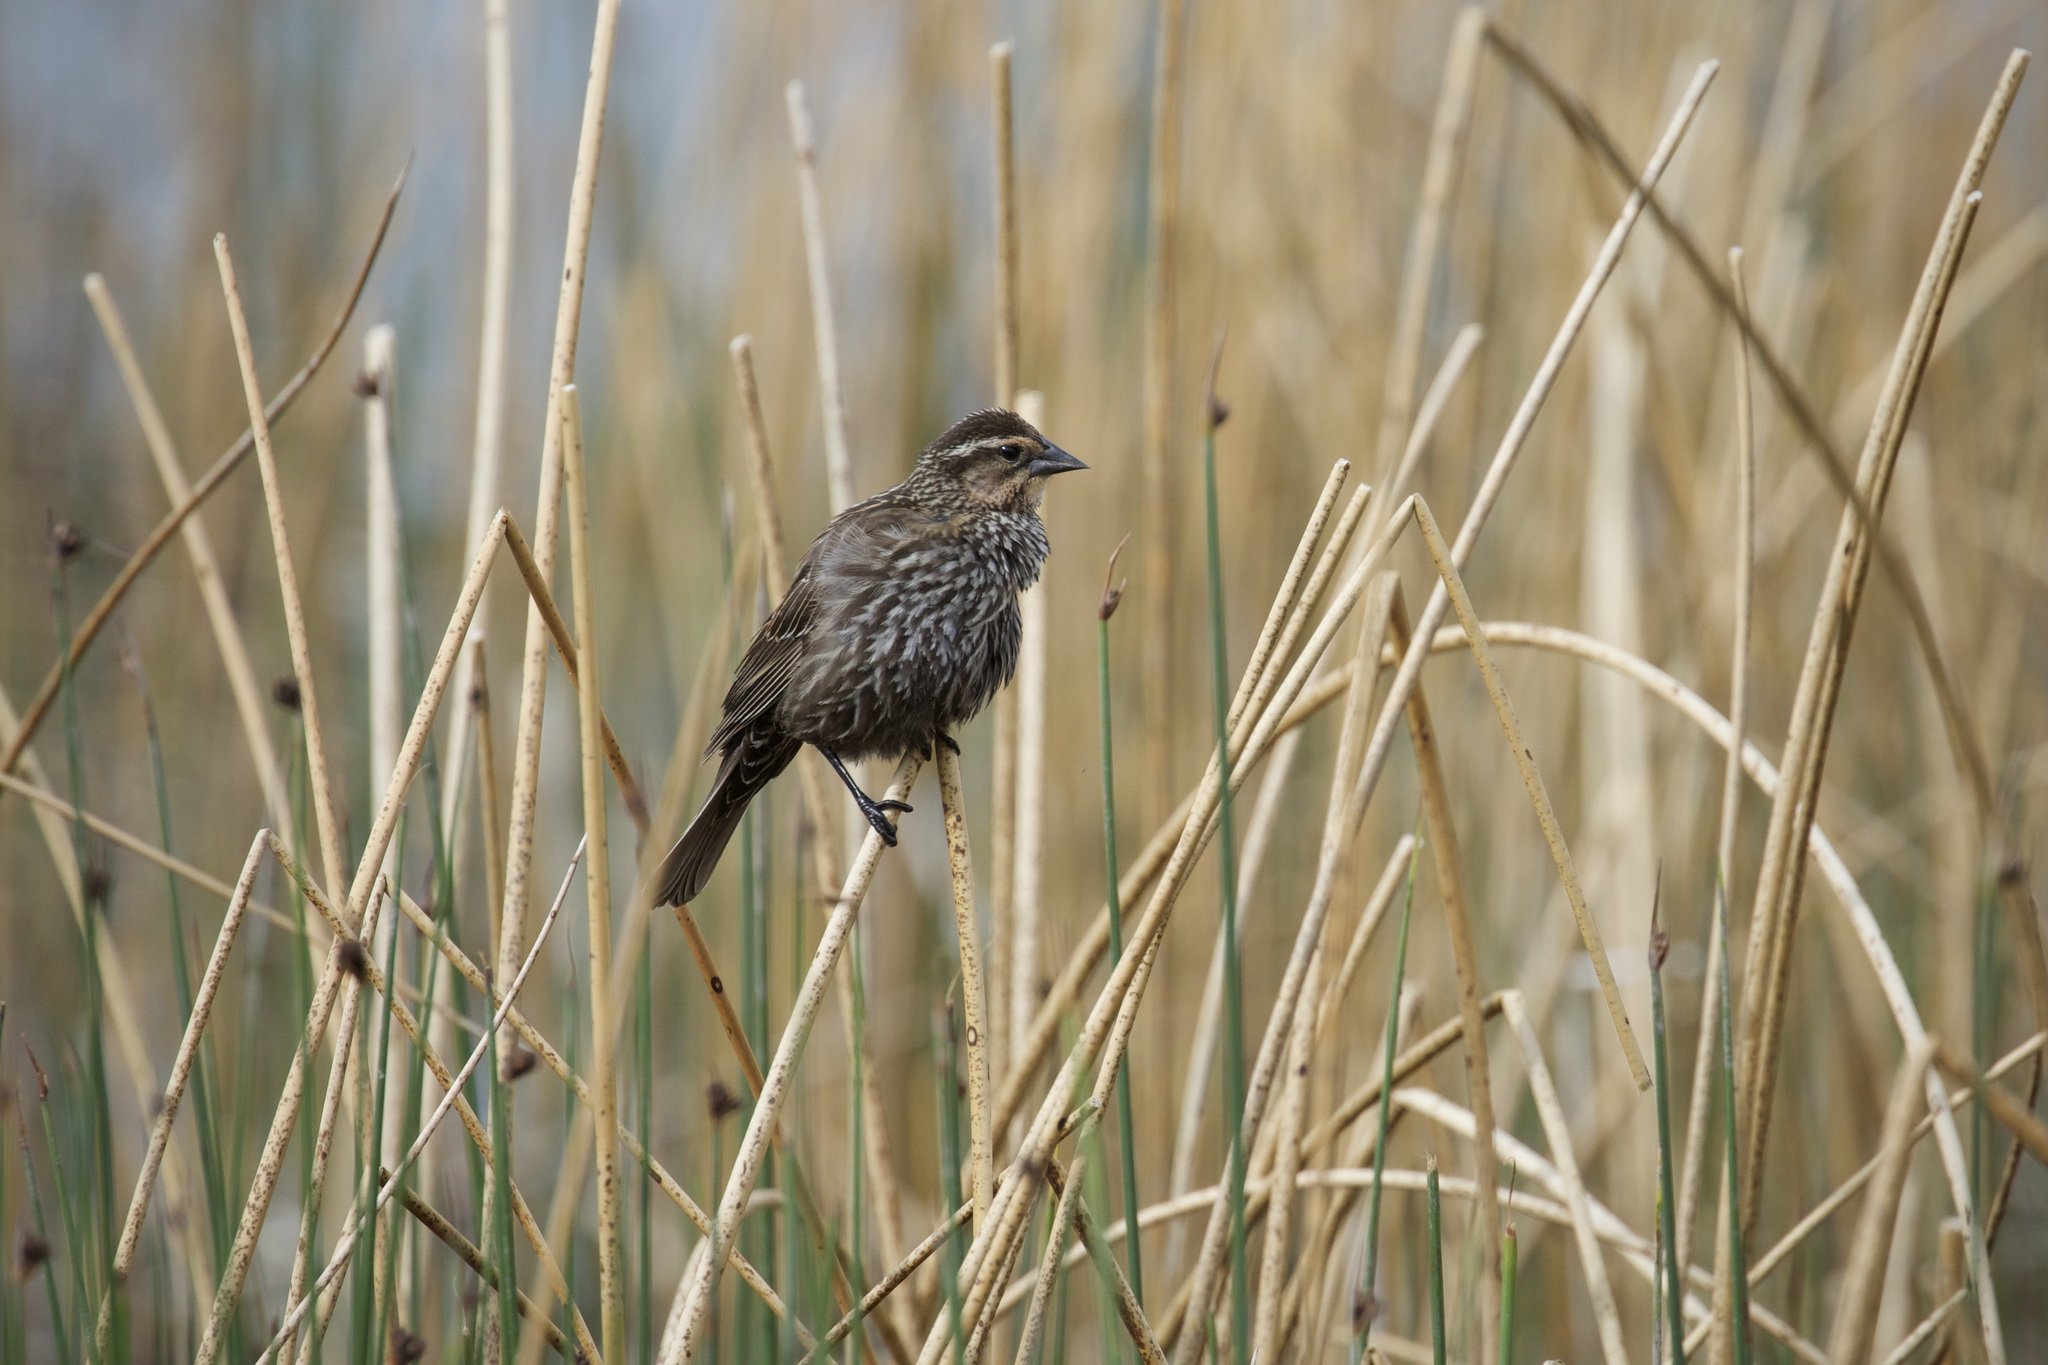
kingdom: Animalia
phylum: Chordata
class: Aves
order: Passeriformes
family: Icteridae
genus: Agelaius
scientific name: Agelaius phoeniceus
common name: Red-winged blackbird
